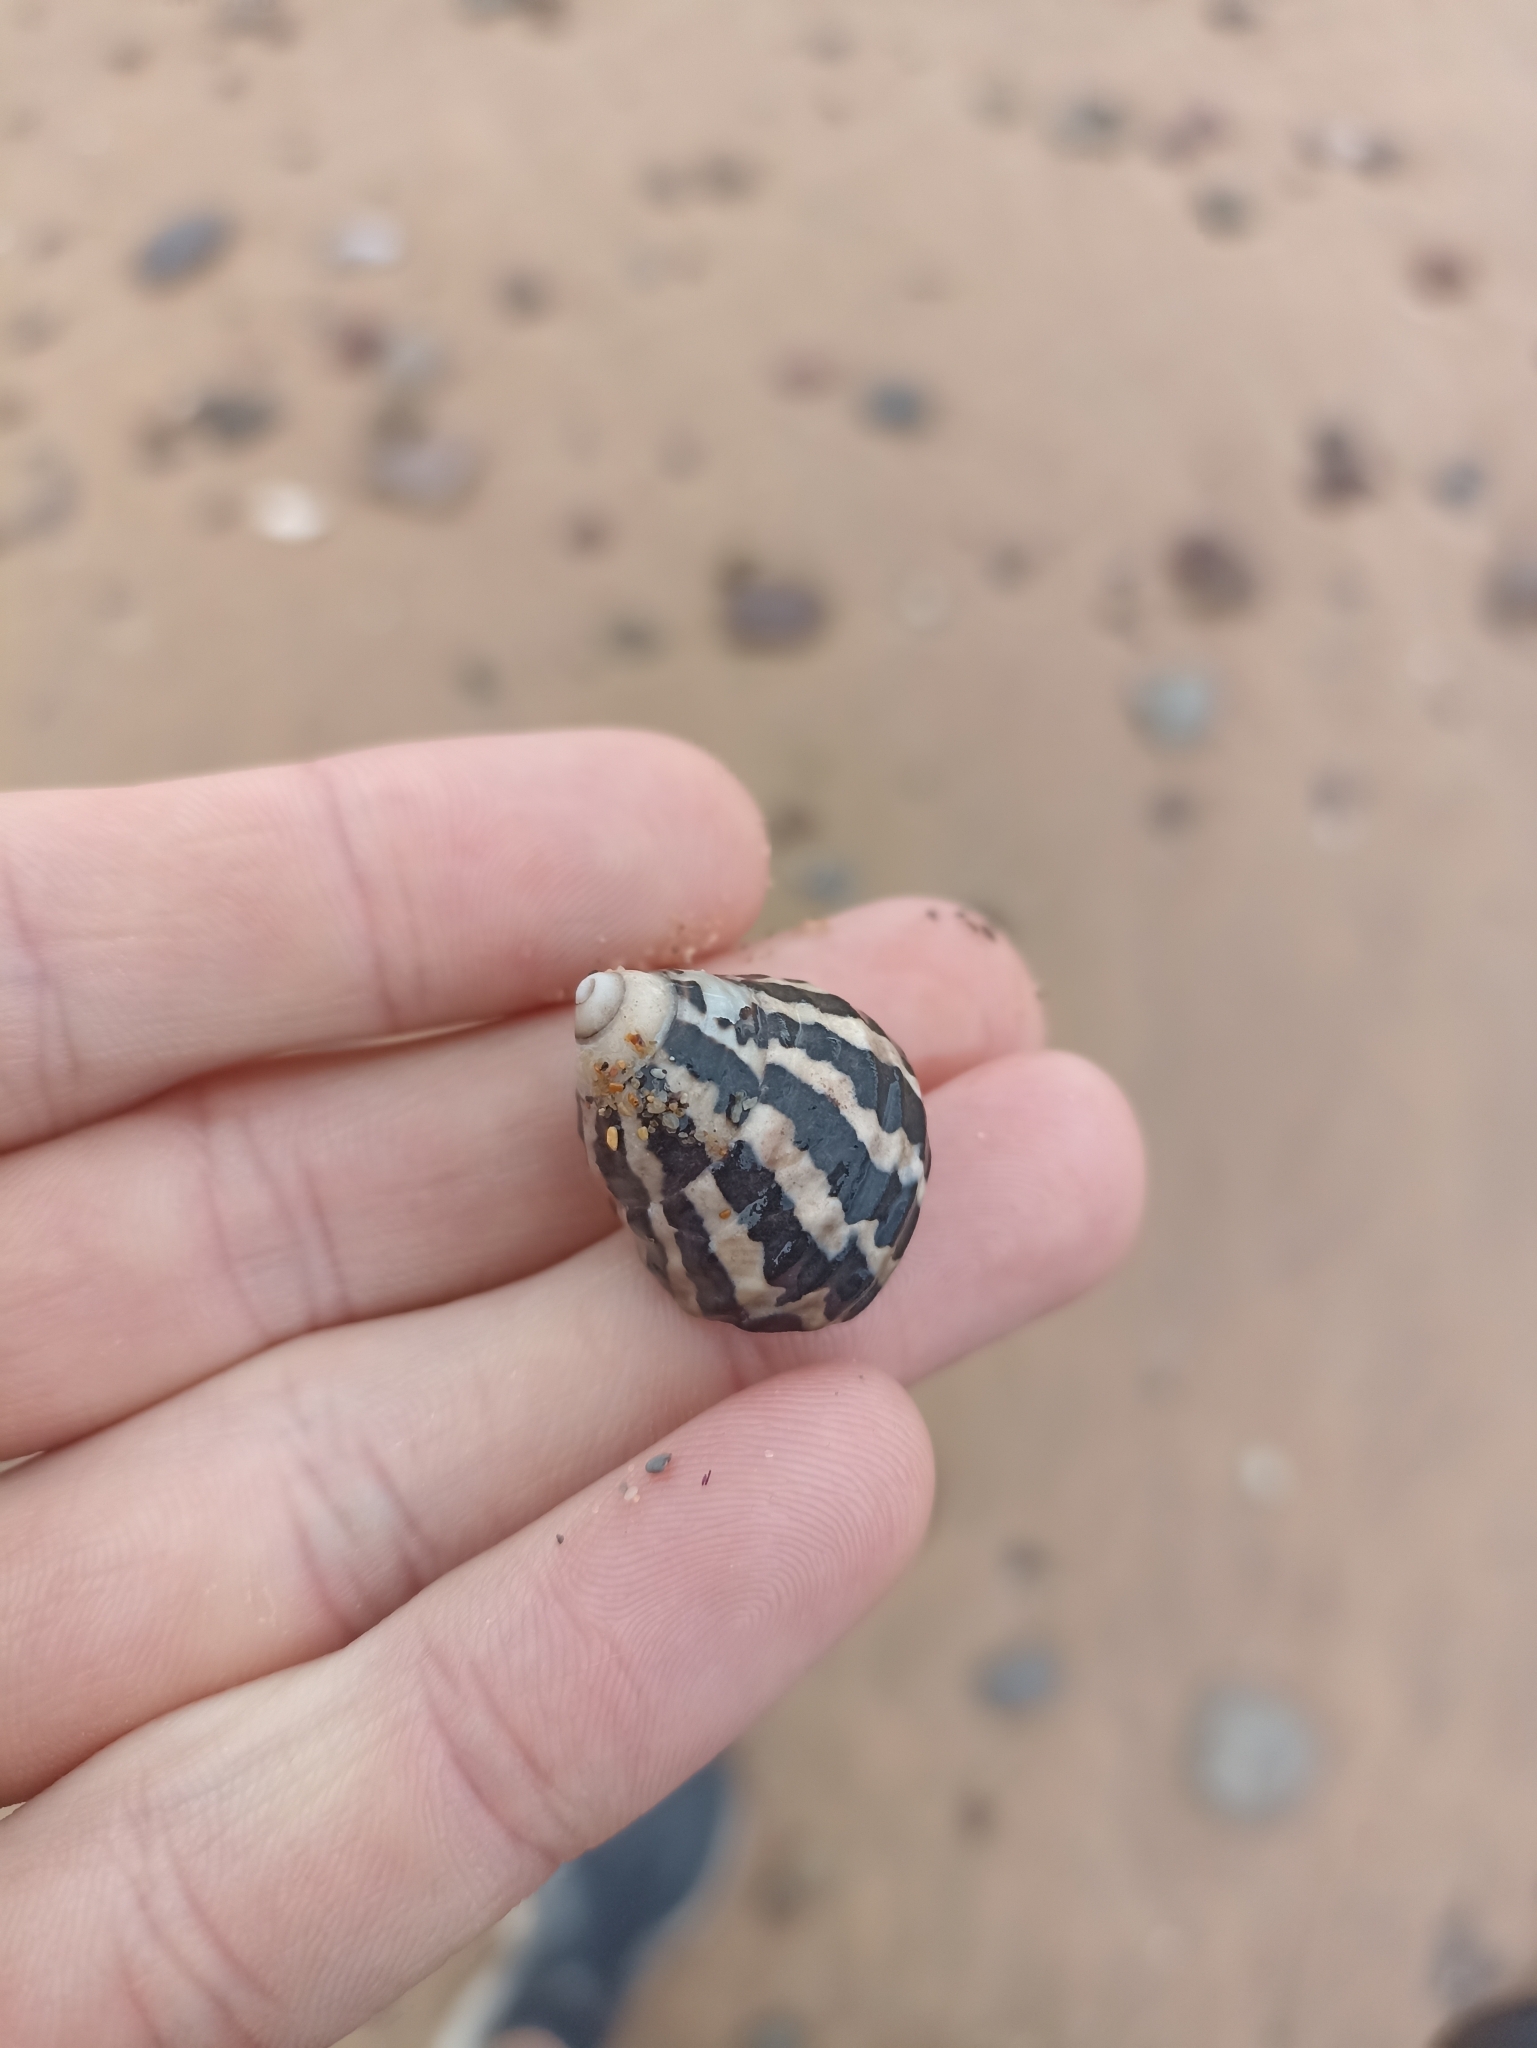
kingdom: Animalia
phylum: Mollusca
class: Gastropoda
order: Trochida
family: Trochidae
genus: Austrocochlea
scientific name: Austrocochlea porcata
